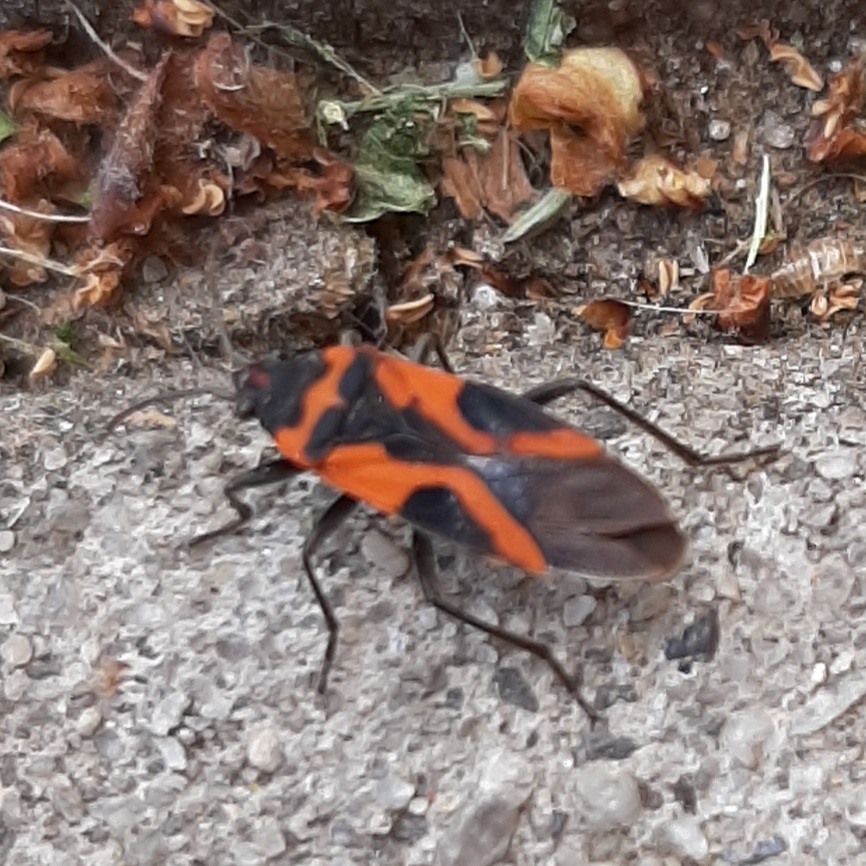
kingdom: Animalia
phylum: Arthropoda
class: Insecta
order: Hemiptera
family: Lygaeidae
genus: Lygaeus
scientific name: Lygaeus turcicus
